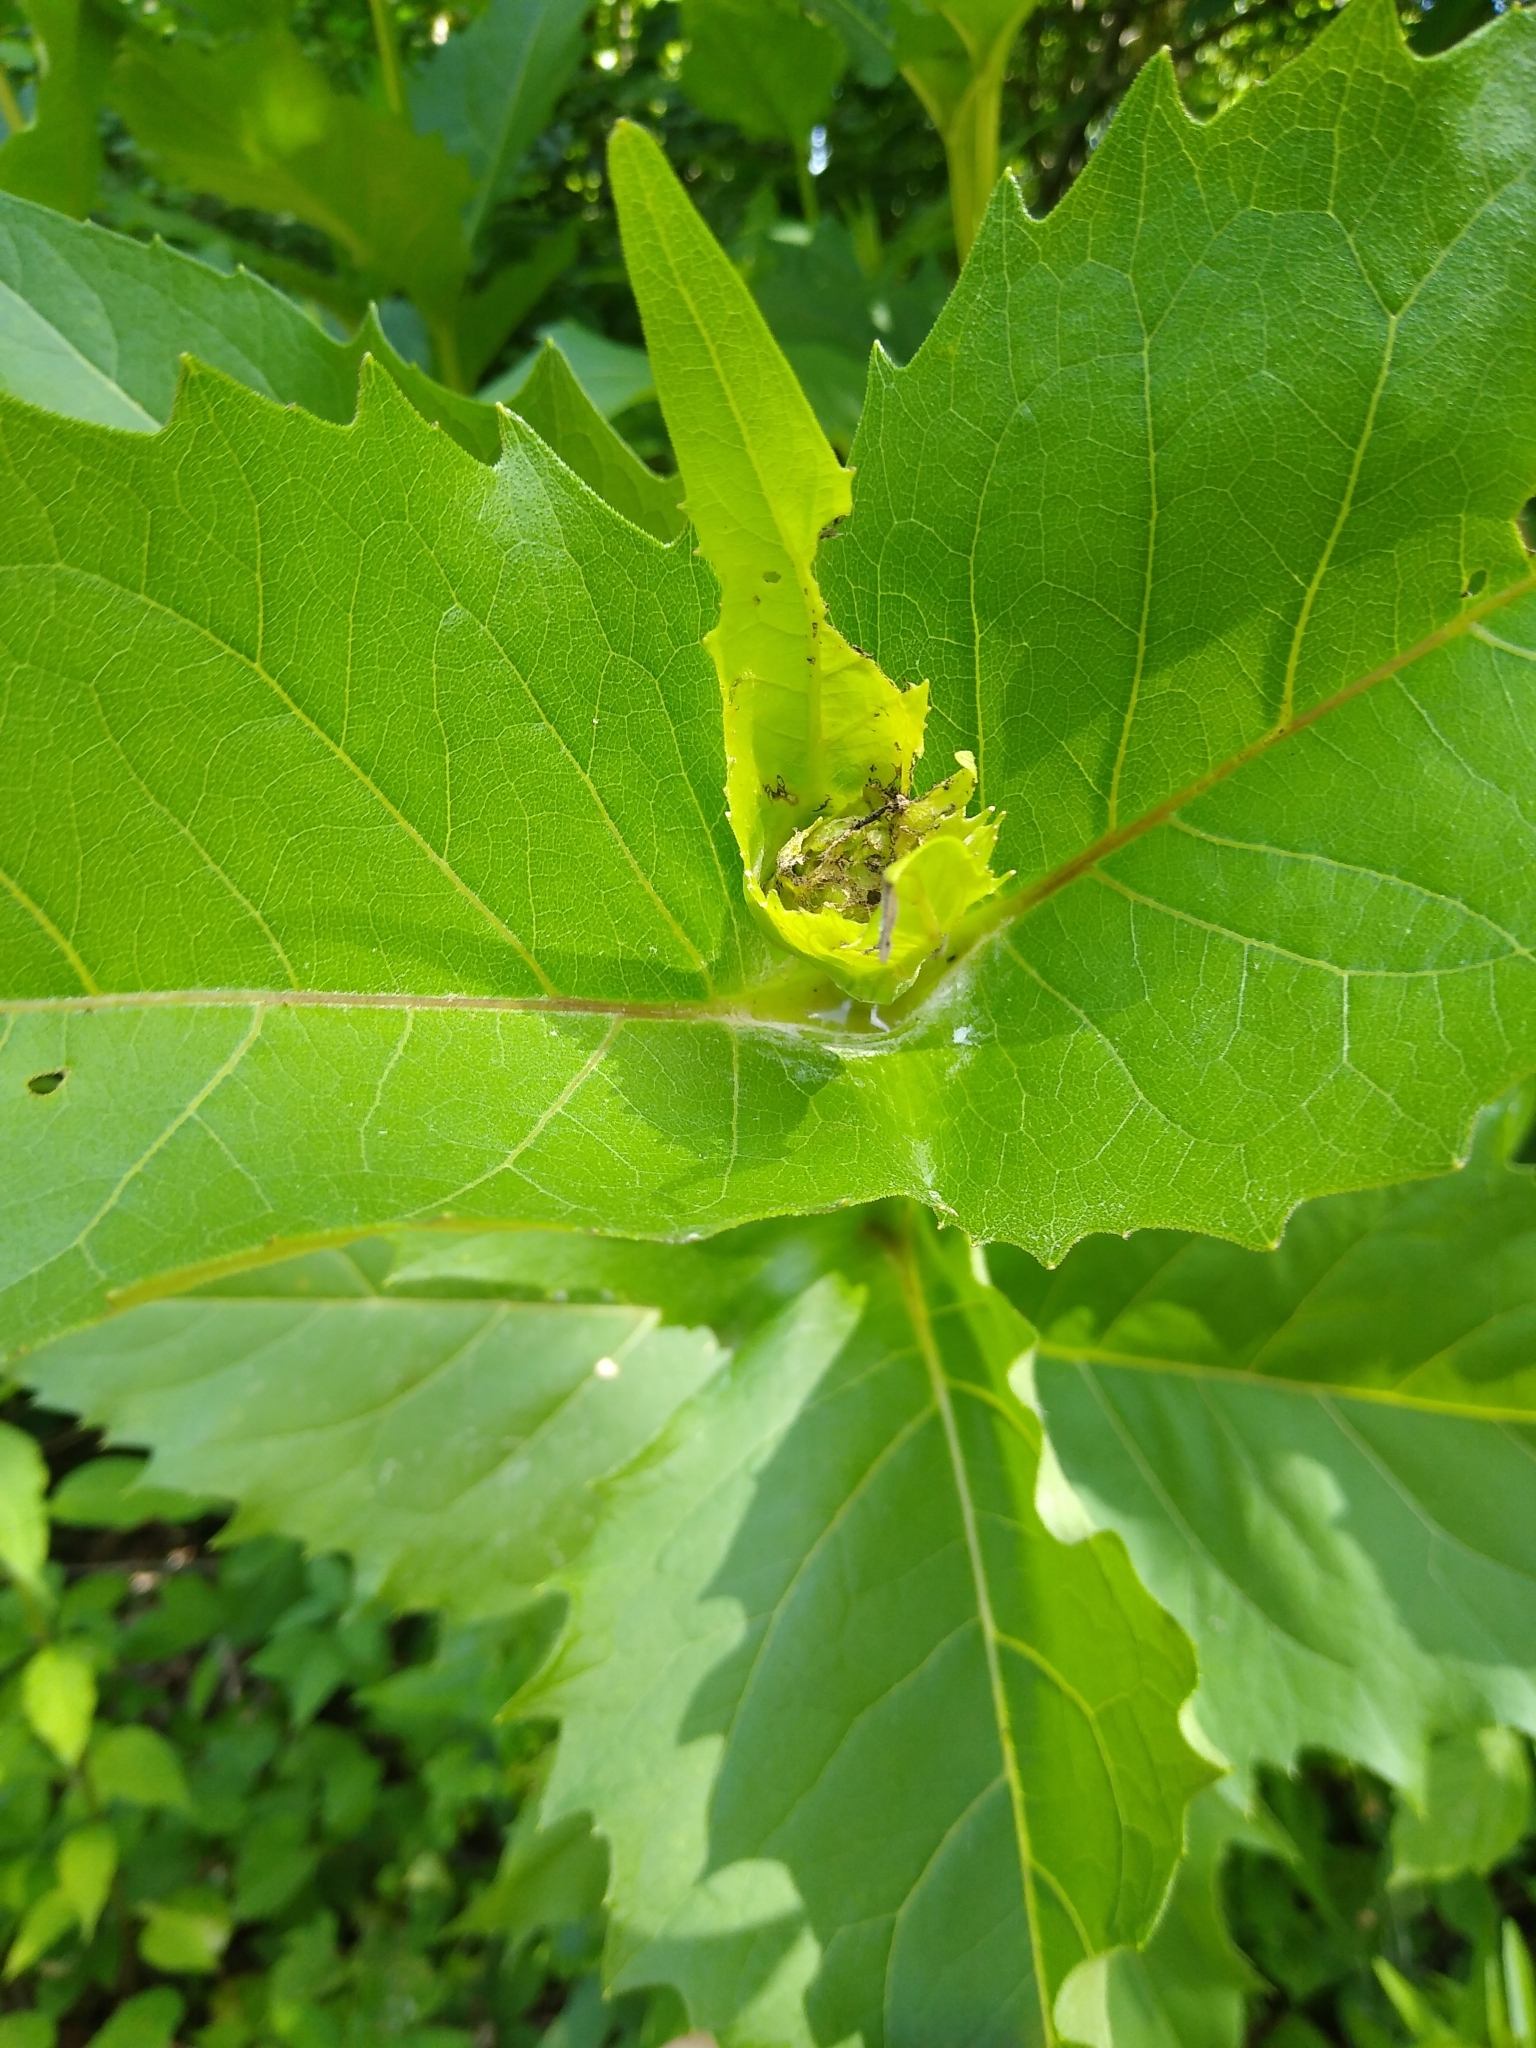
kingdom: Plantae
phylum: Tracheophyta
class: Magnoliopsida
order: Asterales
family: Asteraceae
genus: Silphium
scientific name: Silphium perfoliatum
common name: Cup-plant
